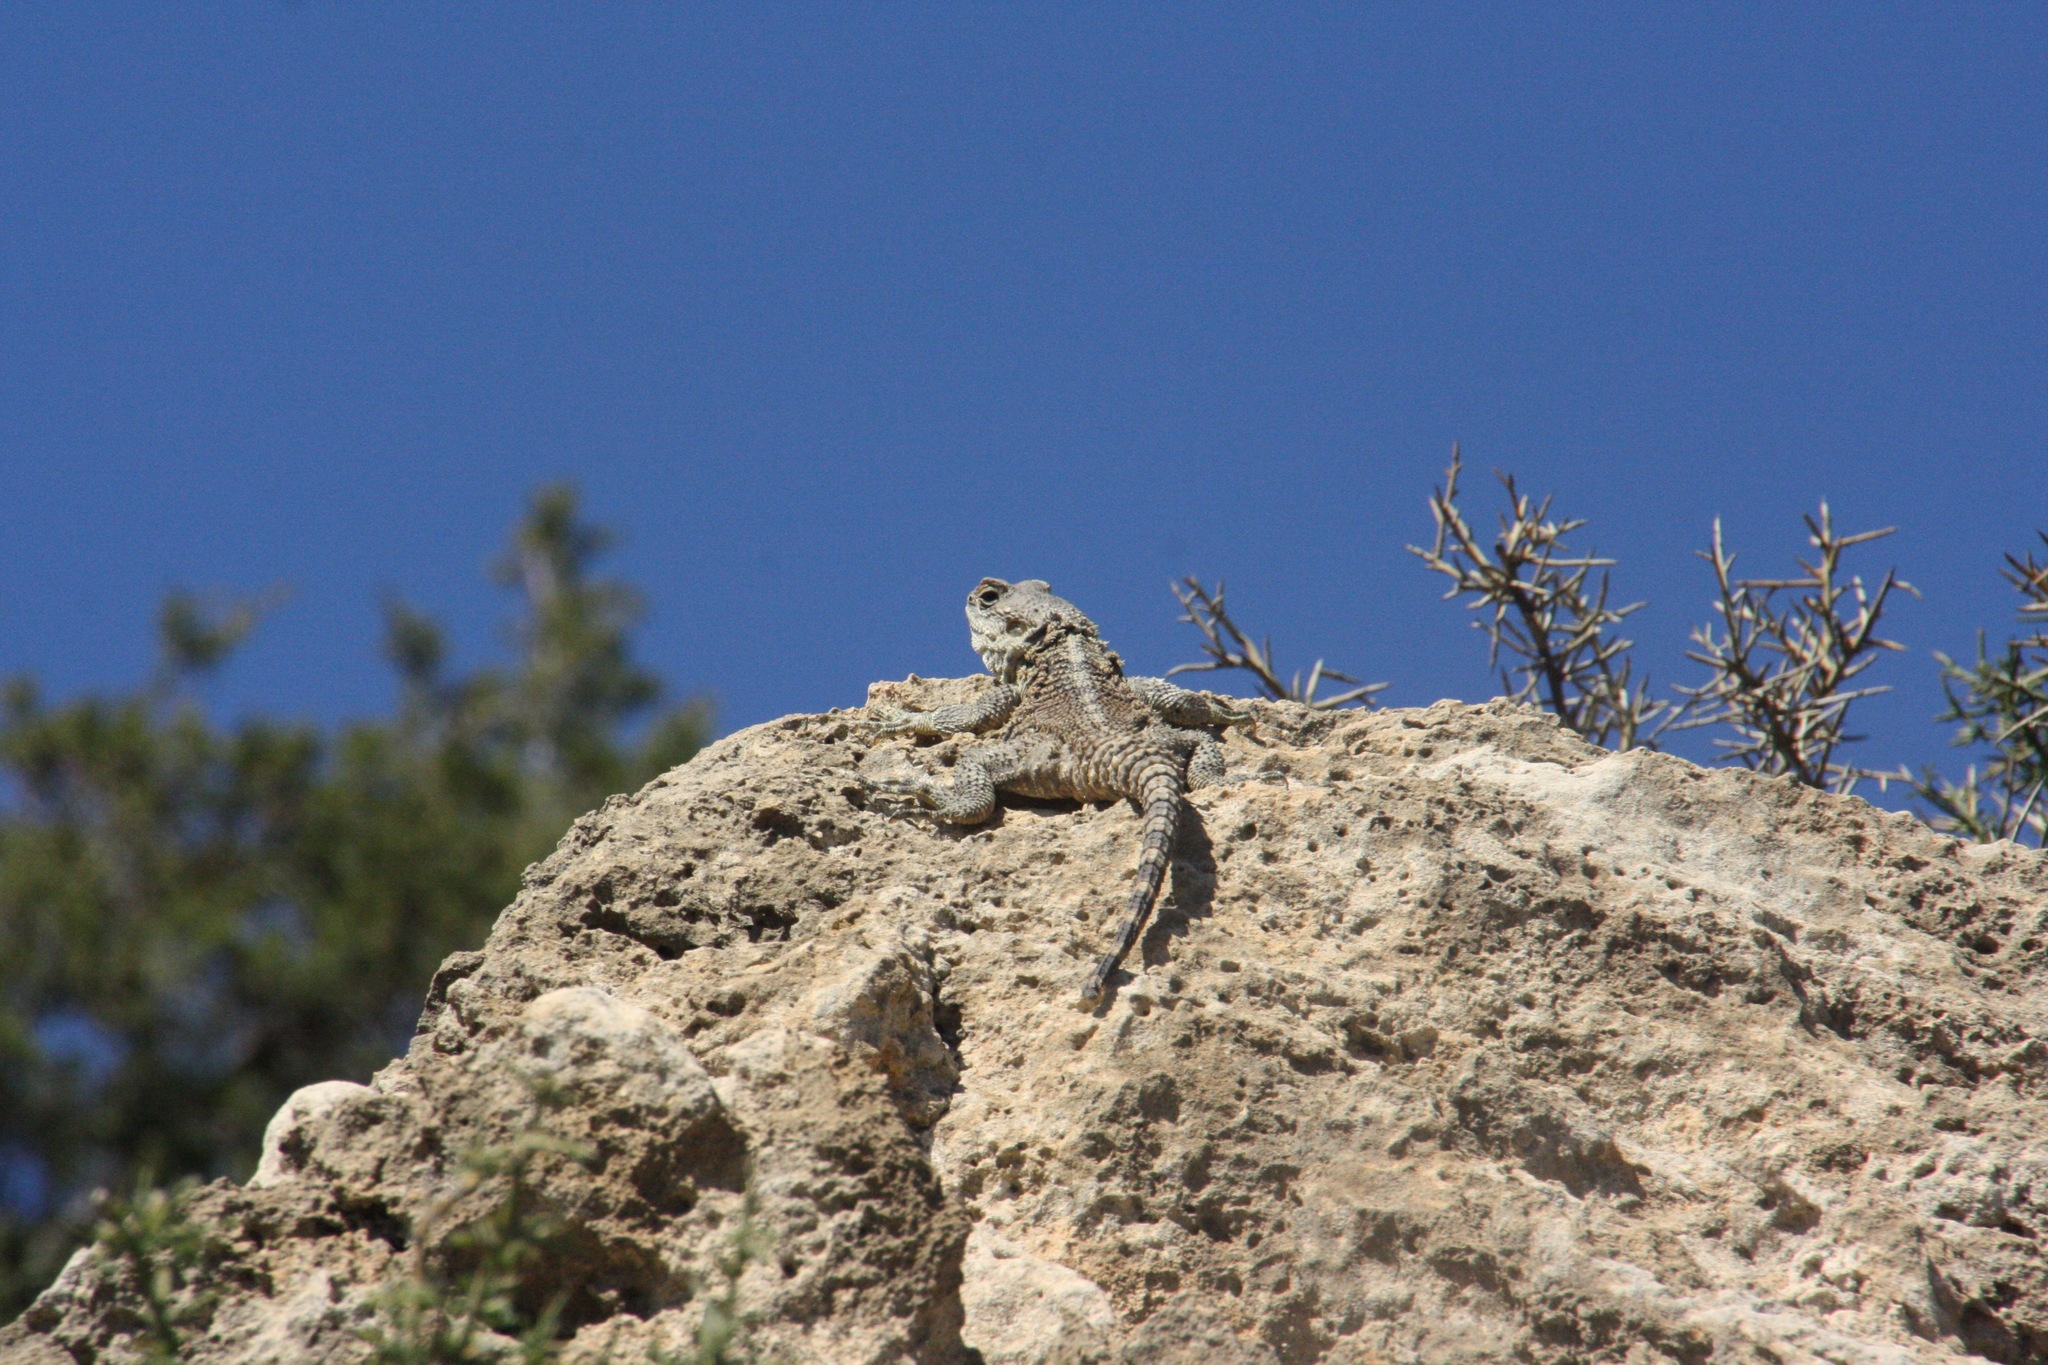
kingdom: Animalia
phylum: Chordata
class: Squamata
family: Agamidae
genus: Laudakia
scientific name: Laudakia
